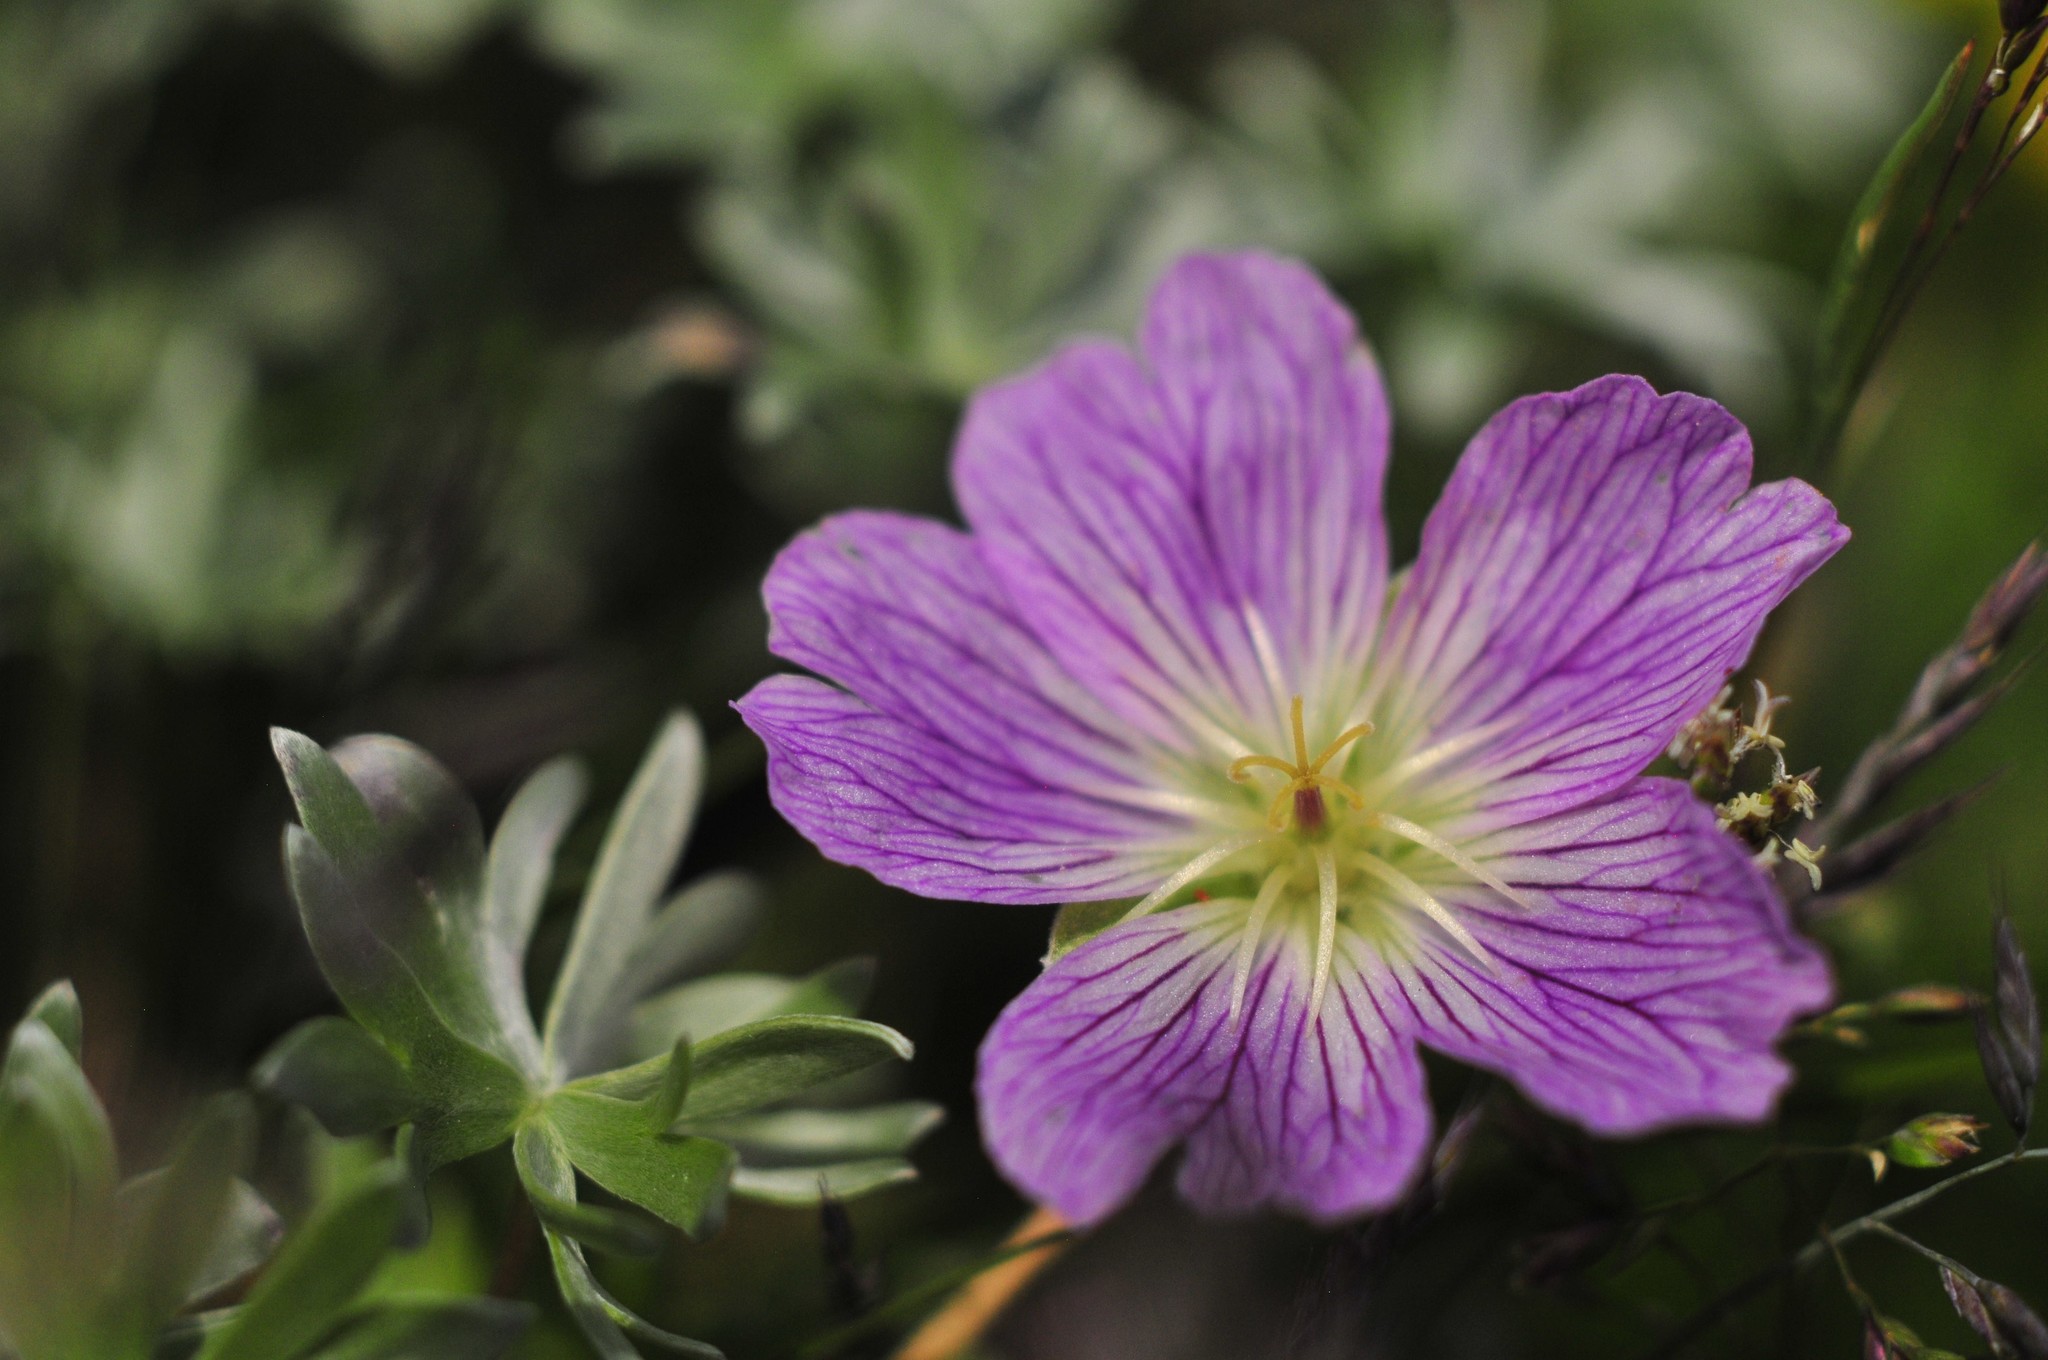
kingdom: Plantae
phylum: Tracheophyta
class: Magnoliopsida
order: Geraniales
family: Geraniaceae
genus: Geranium
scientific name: Geranium argenteum
